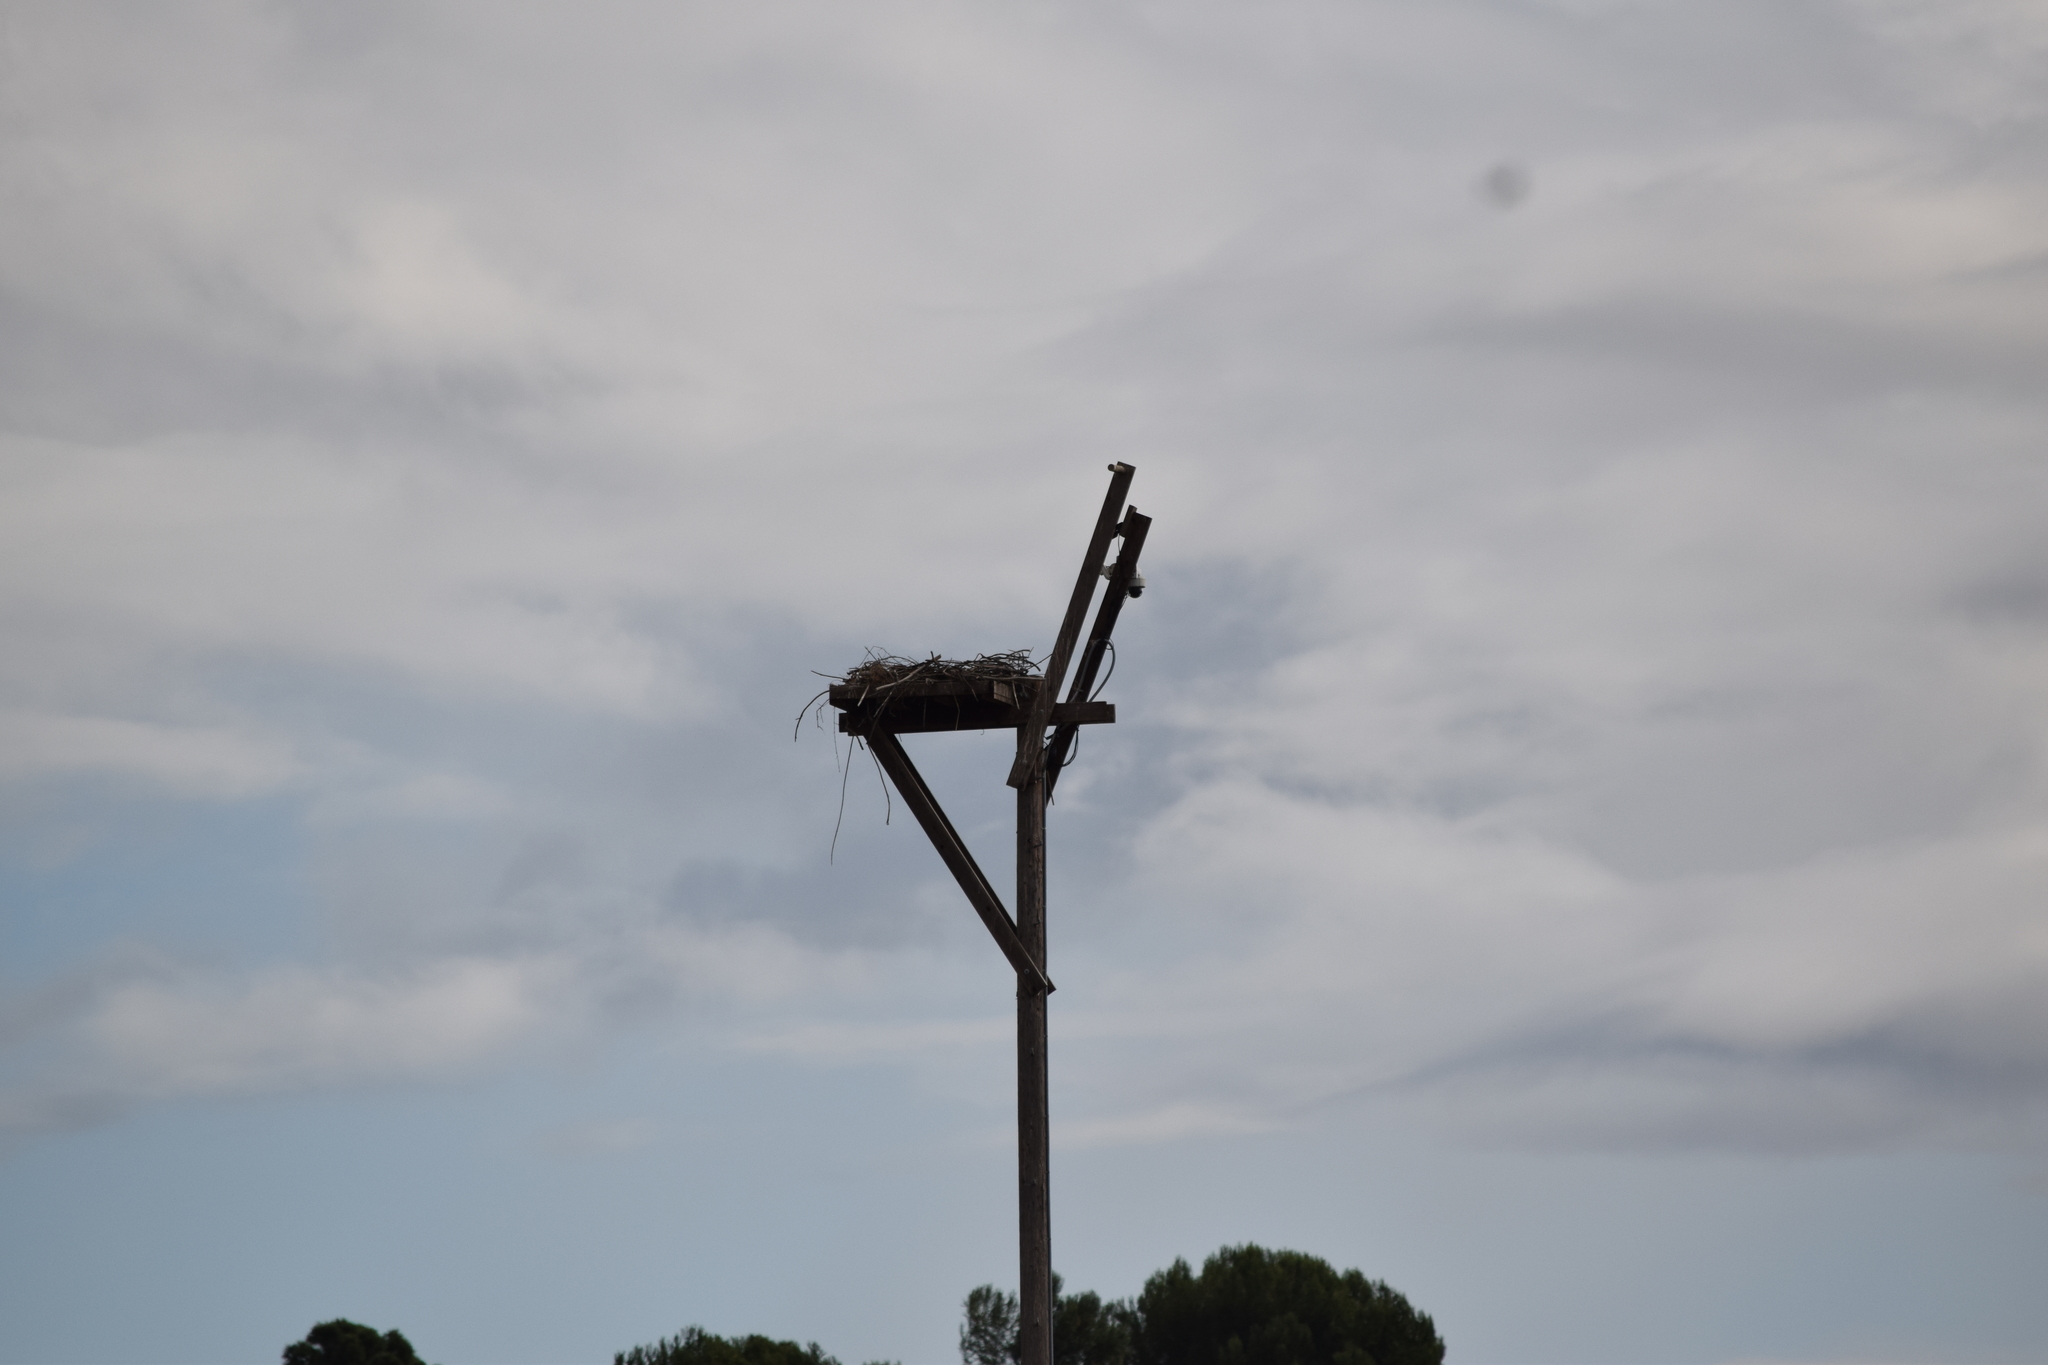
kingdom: Animalia
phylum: Chordata
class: Aves
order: Accipitriformes
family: Pandionidae
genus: Pandion
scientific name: Pandion haliaetus
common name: Osprey
